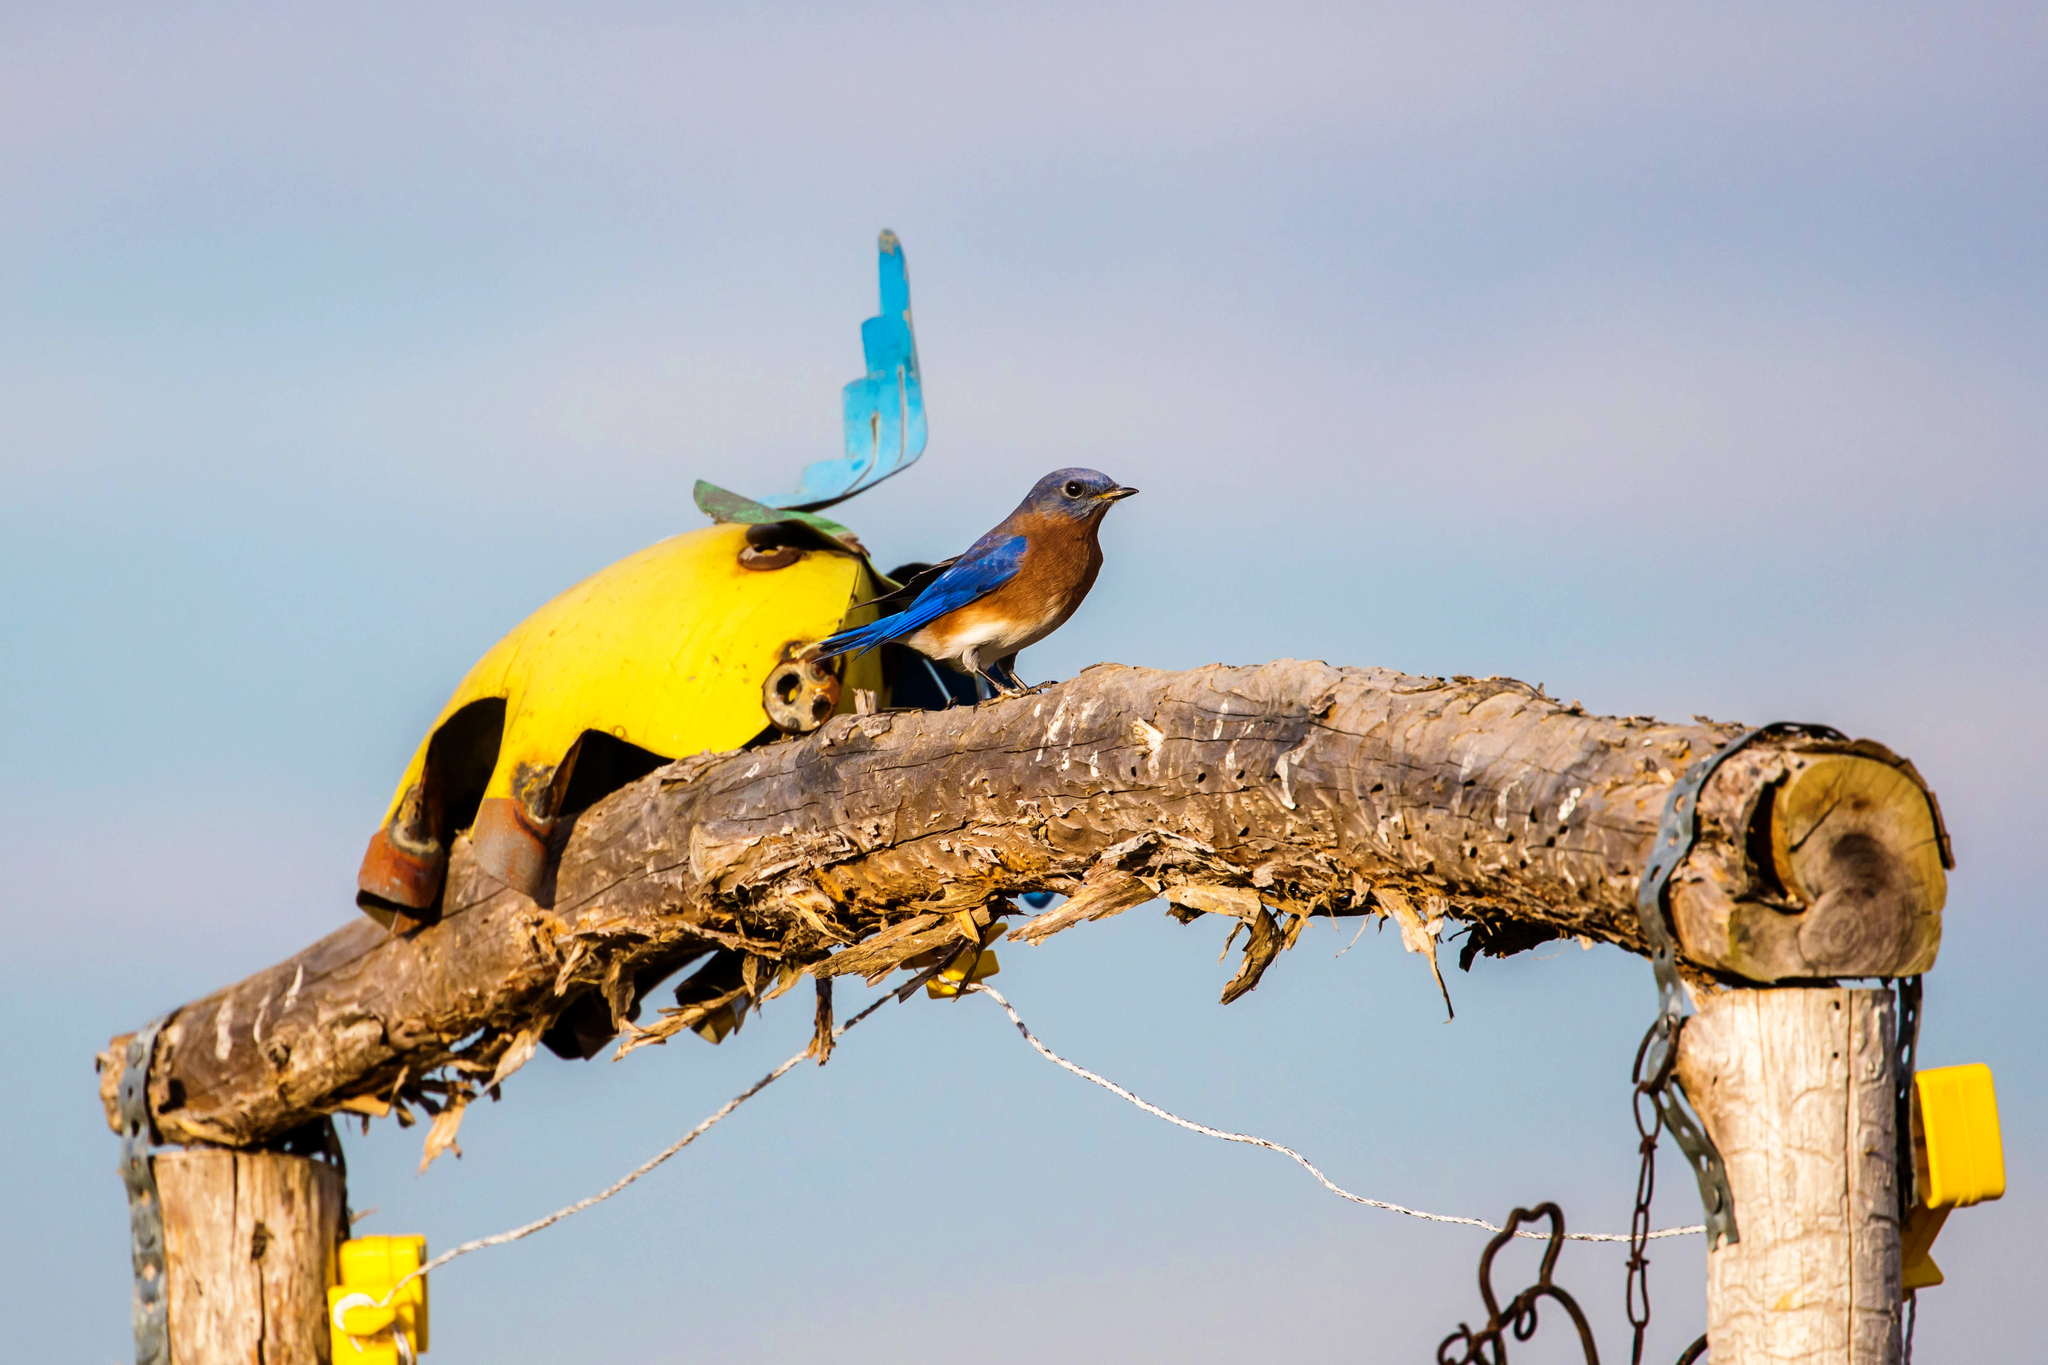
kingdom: Animalia
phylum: Chordata
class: Aves
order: Passeriformes
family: Turdidae
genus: Sialia
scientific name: Sialia sialis
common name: Eastern bluebird
